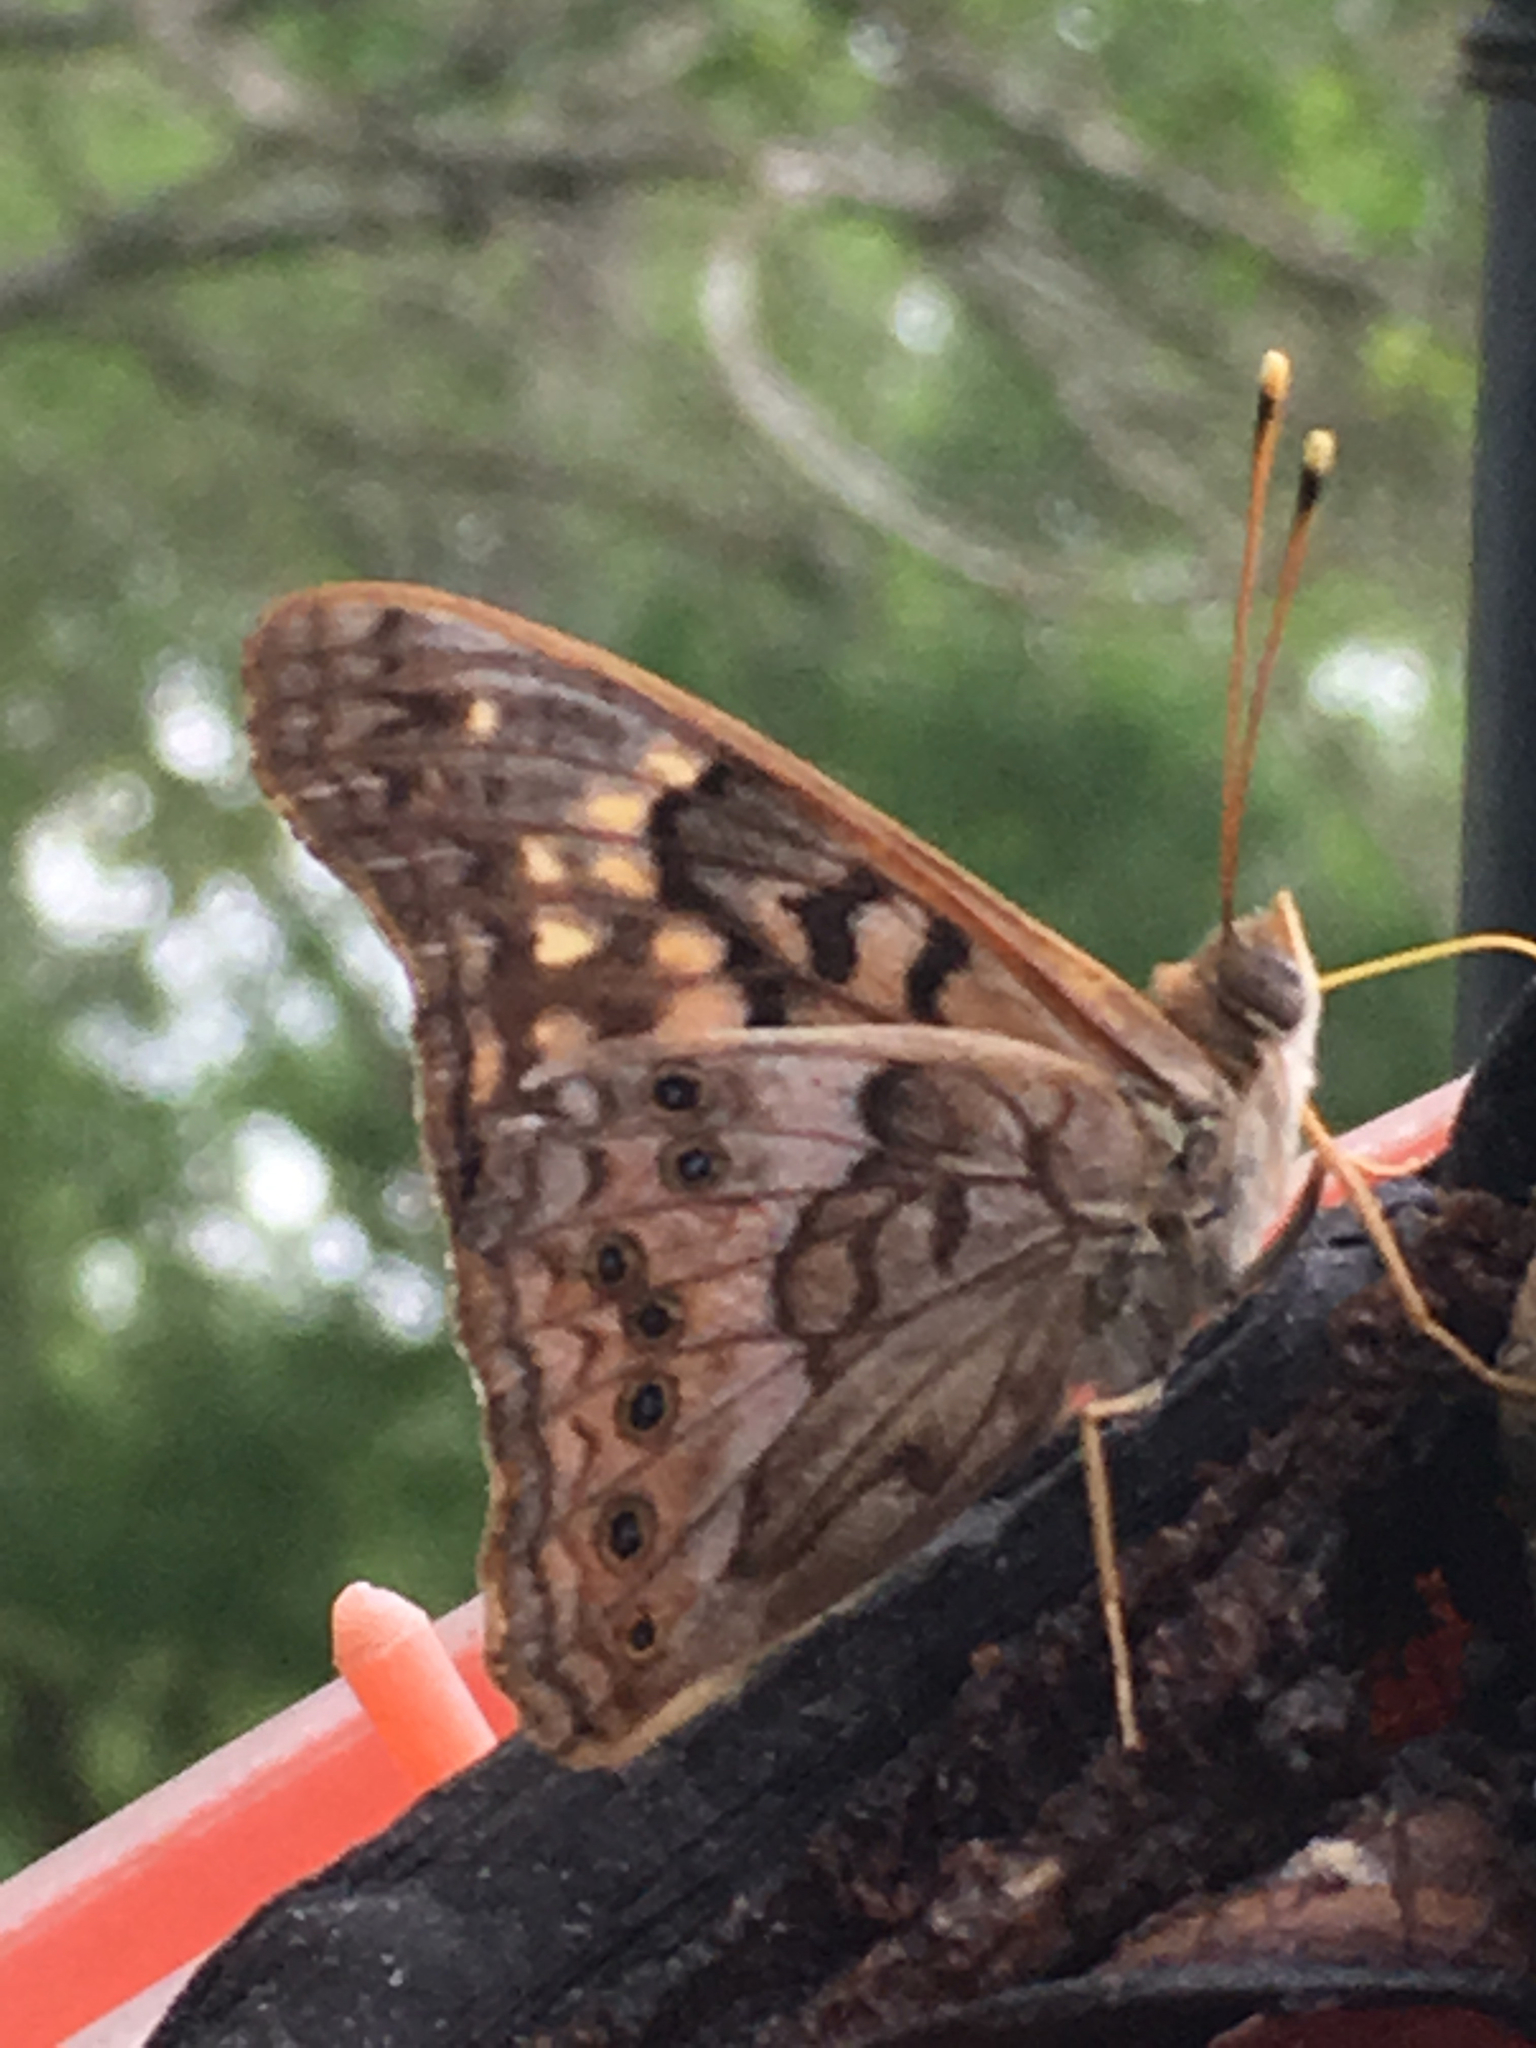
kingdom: Animalia
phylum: Arthropoda
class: Insecta
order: Lepidoptera
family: Nymphalidae
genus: Asterocampa
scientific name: Asterocampa clyton
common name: Tawny emperor
